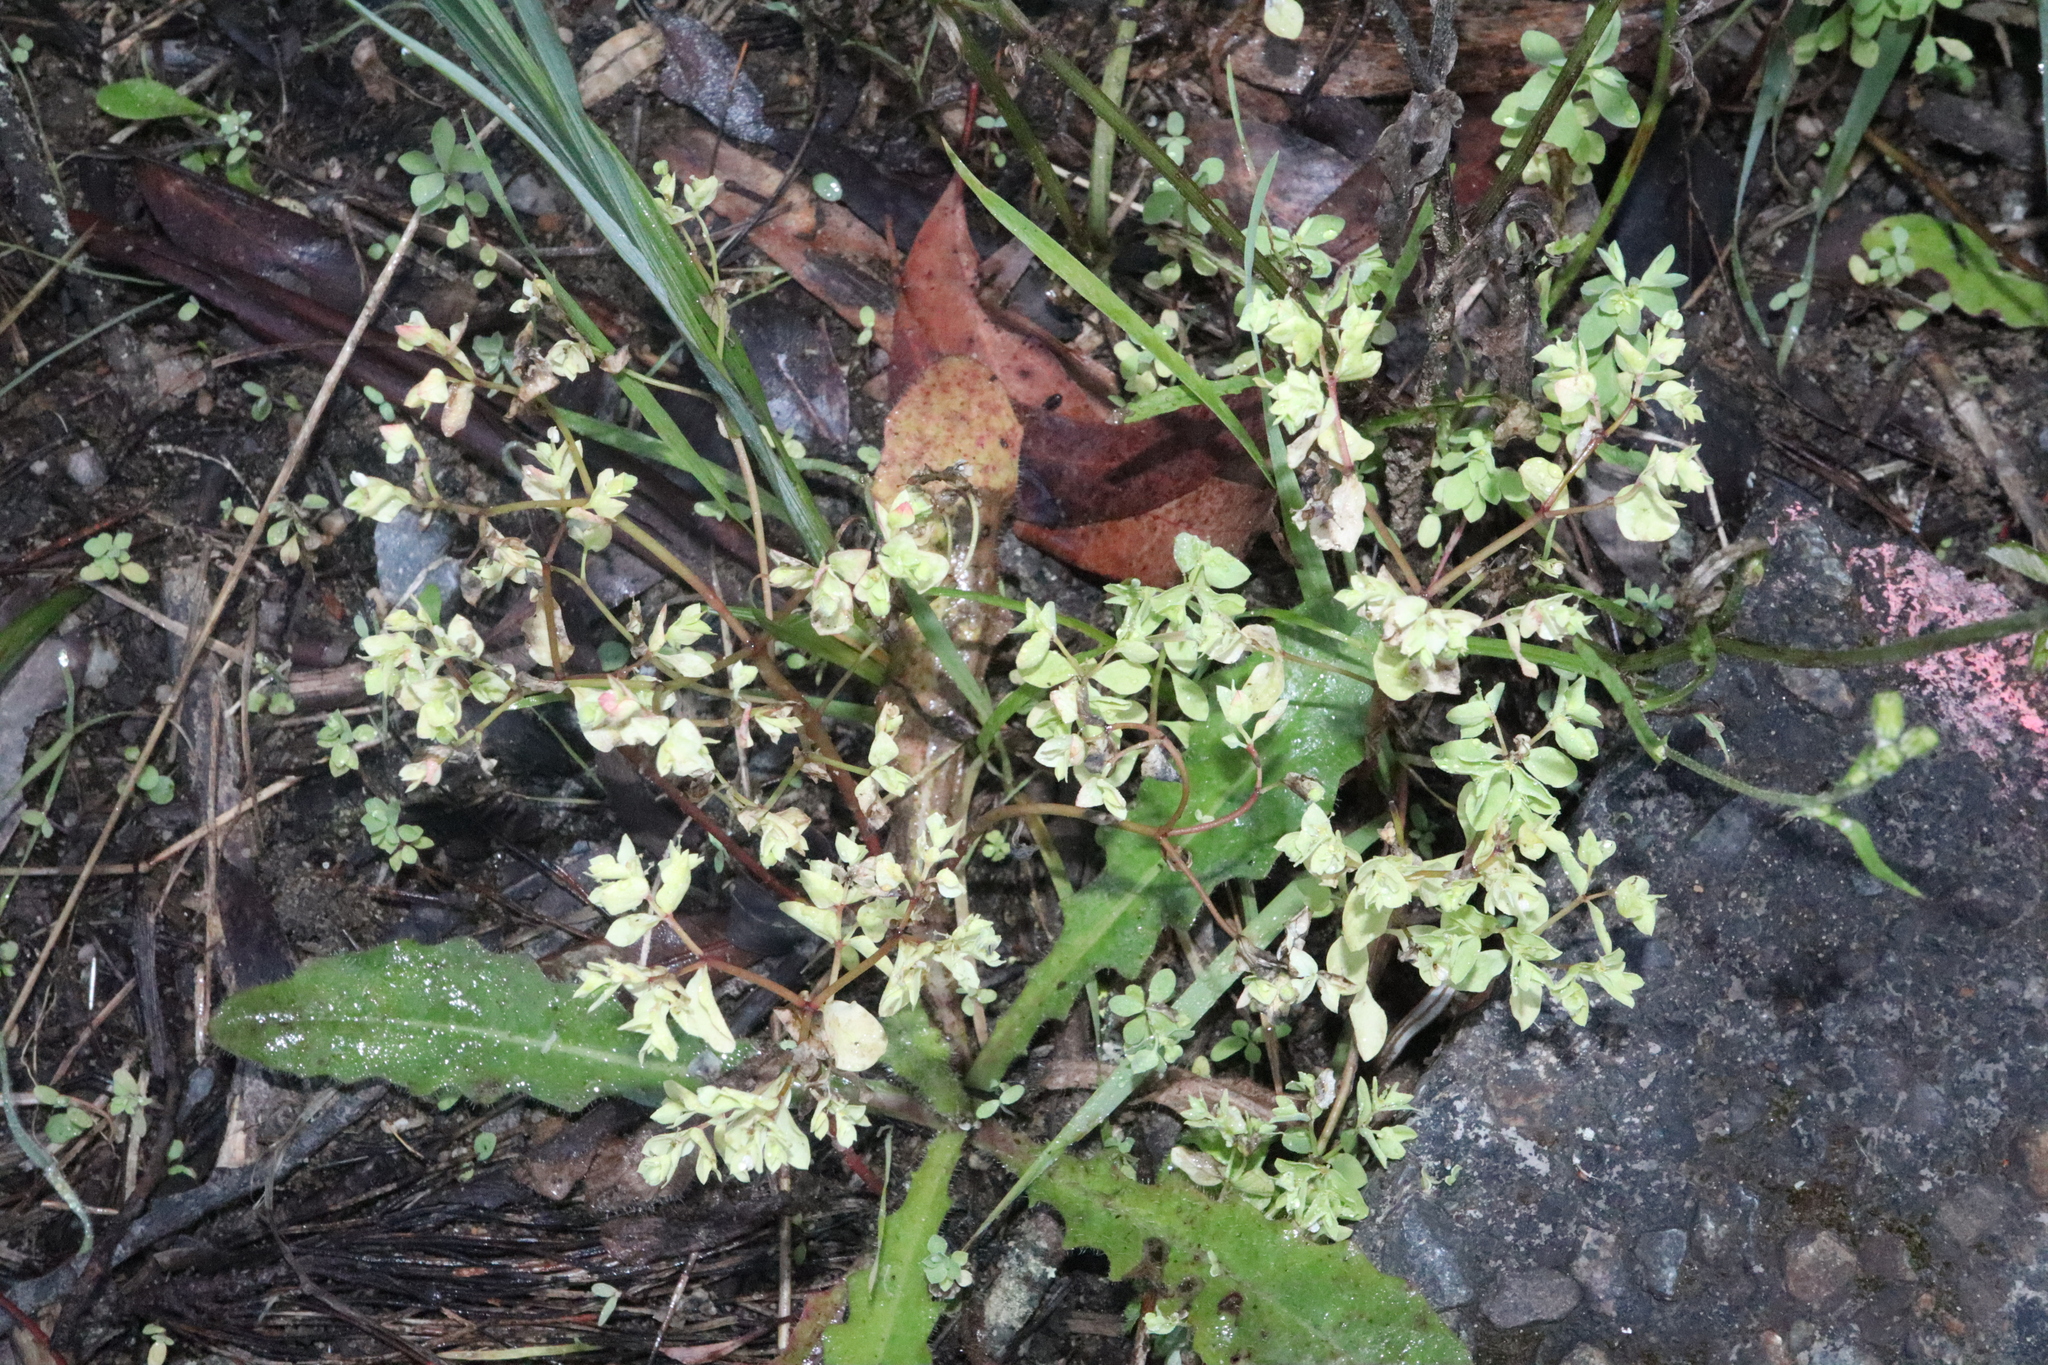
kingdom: Plantae
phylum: Tracheophyta
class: Magnoliopsida
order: Malpighiales
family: Euphorbiaceae
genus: Euphorbia
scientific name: Euphorbia peplus
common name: Petty spurge
